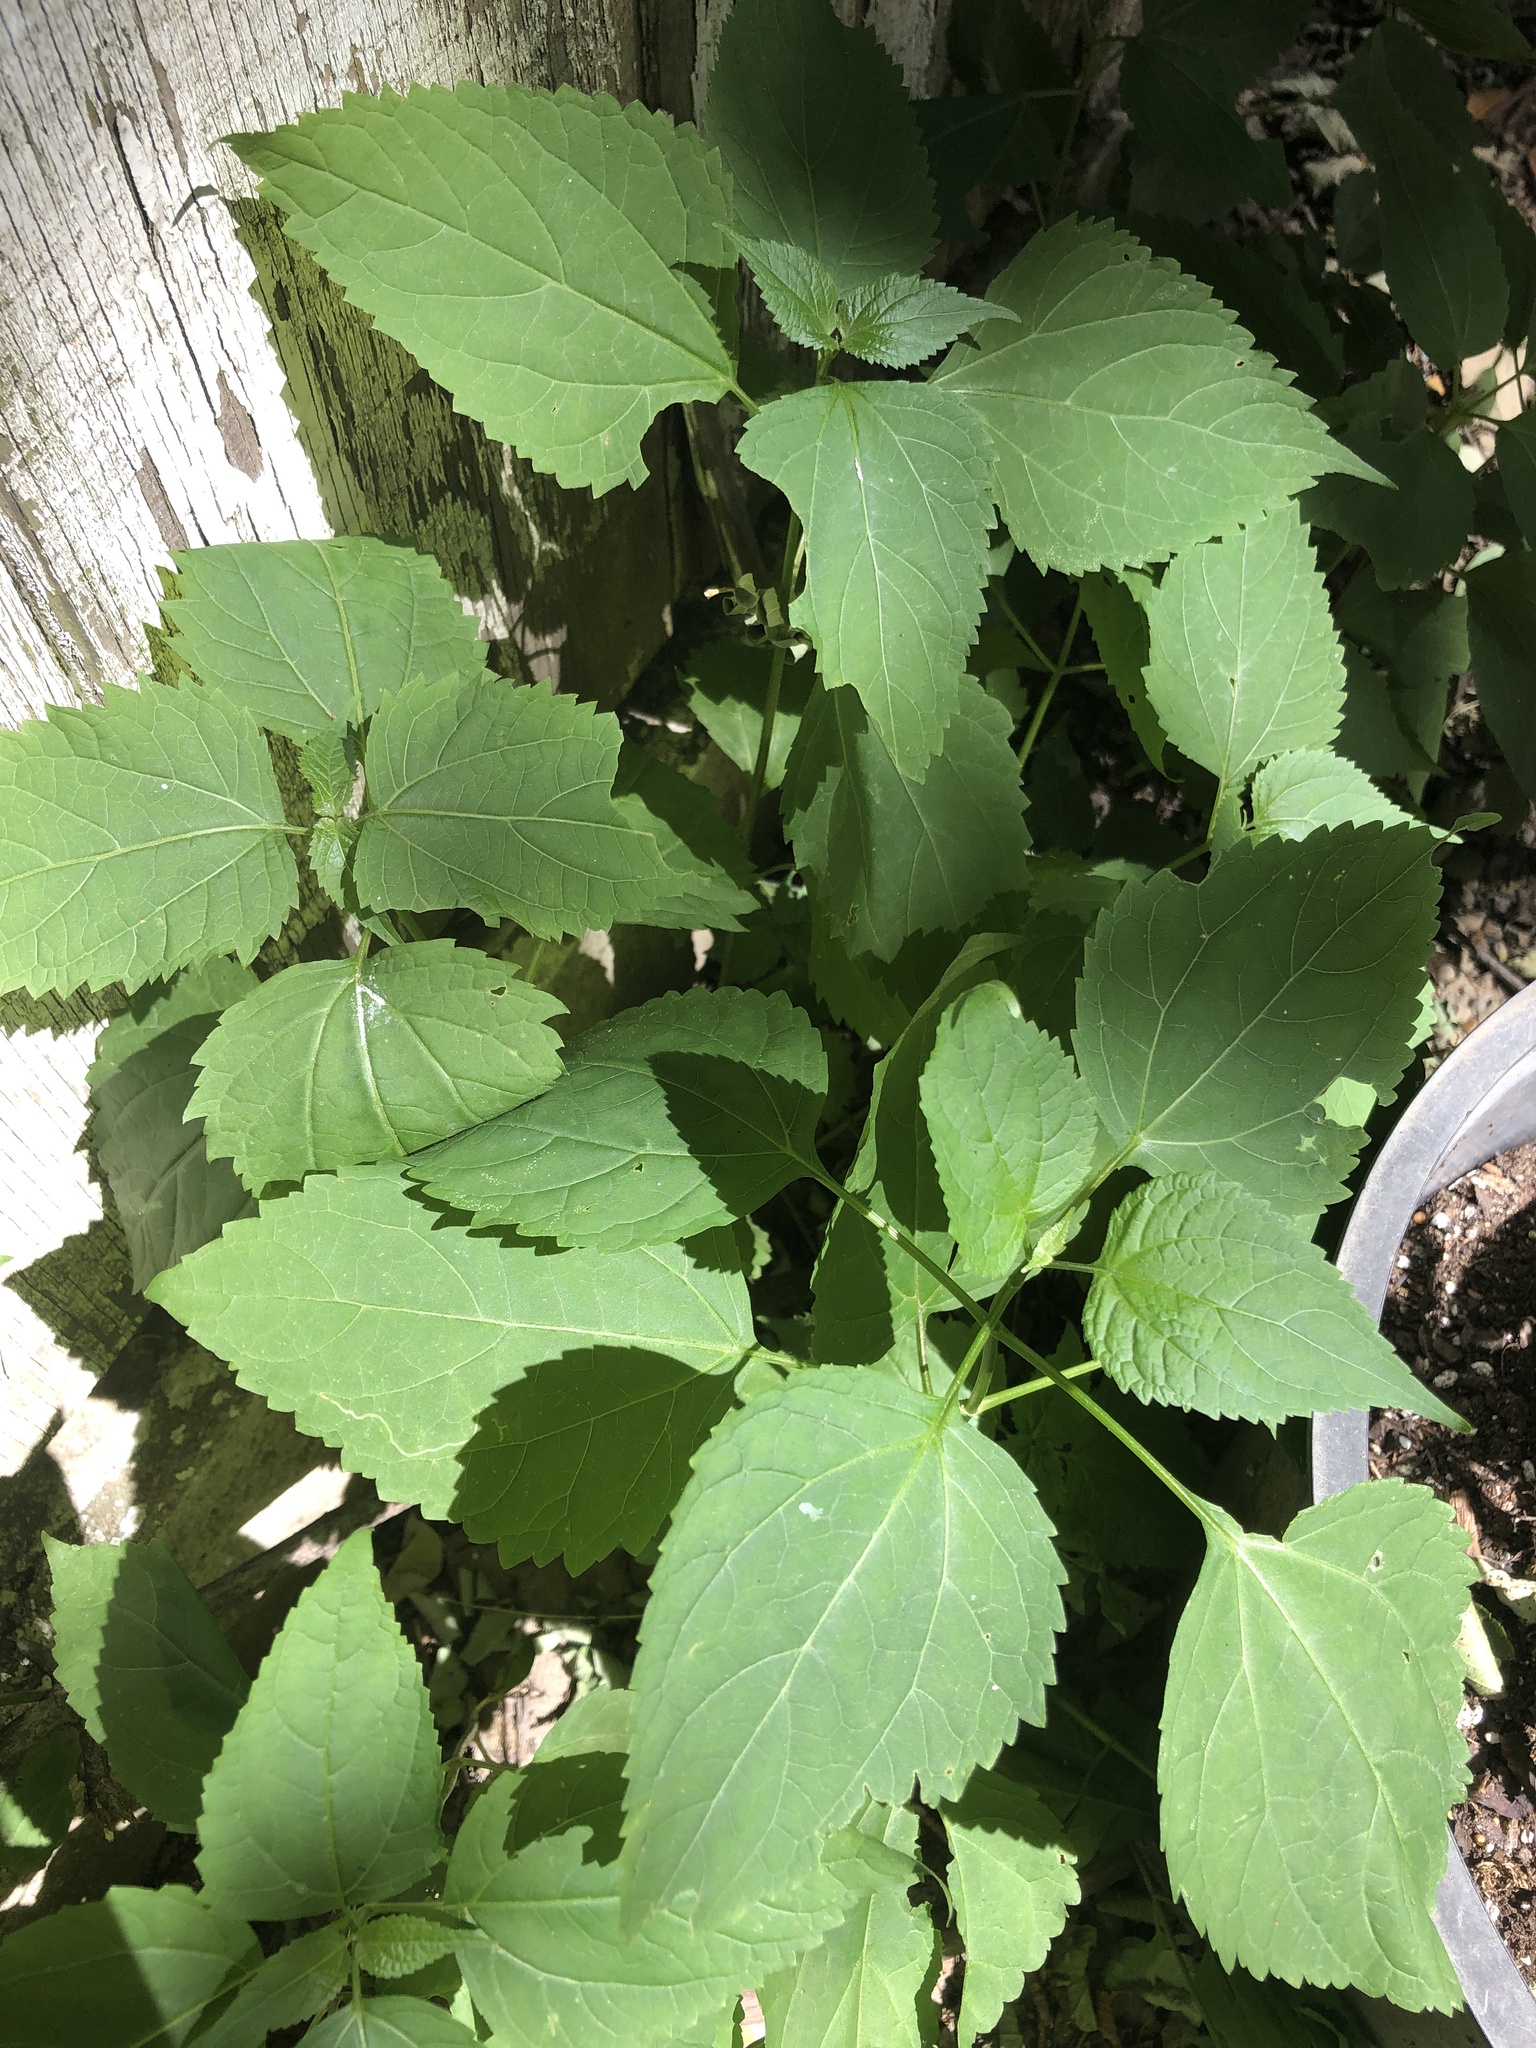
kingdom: Plantae
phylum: Tracheophyta
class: Magnoliopsida
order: Asterales
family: Asteraceae
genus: Ageratina
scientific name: Ageratina altissima
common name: White snakeroot
